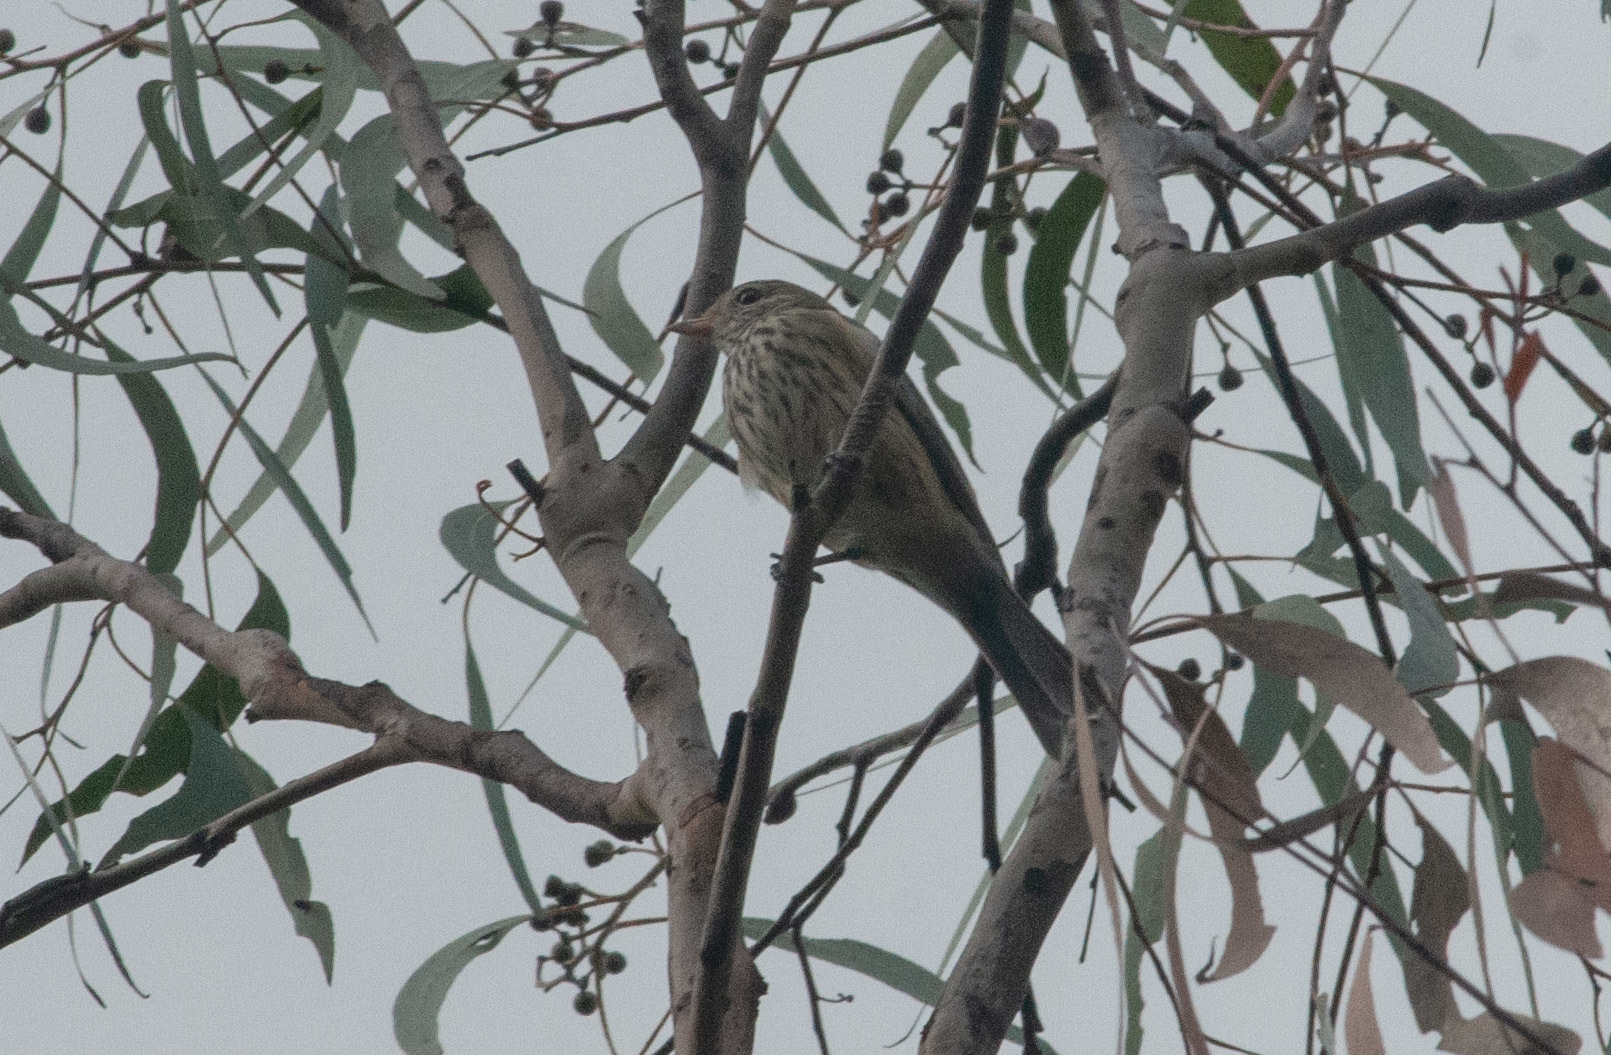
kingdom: Animalia
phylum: Chordata
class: Aves
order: Passeriformes
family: Pachycephalidae
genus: Pachycephala
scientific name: Pachycephala rufiventris
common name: Rufous whistler
